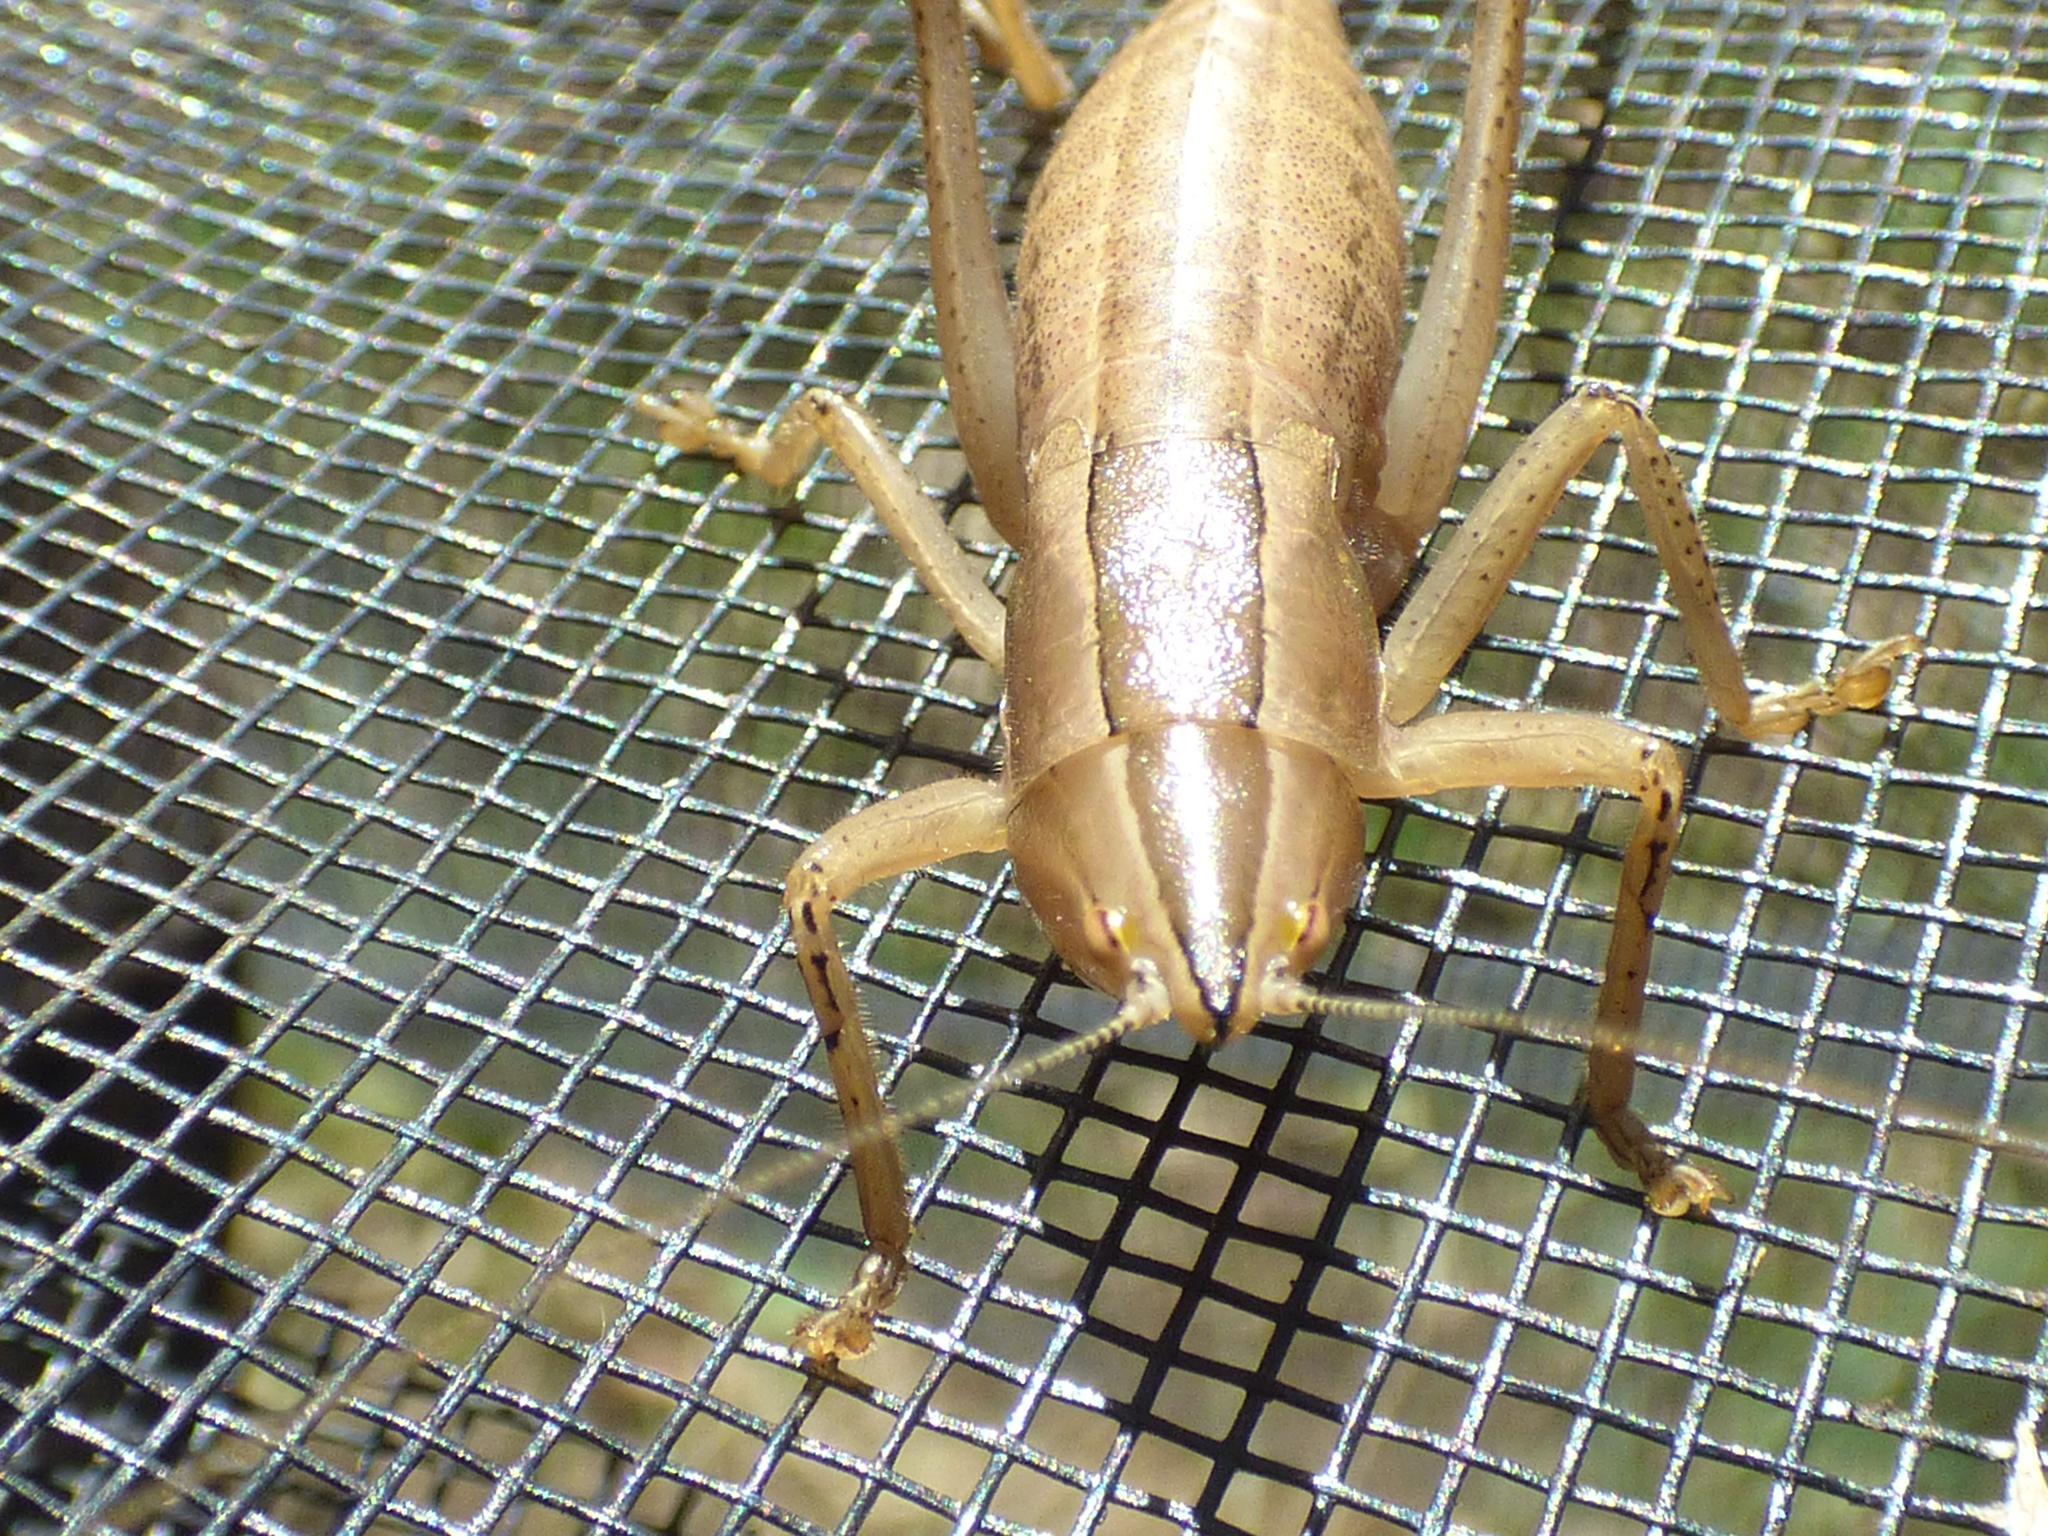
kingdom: Animalia
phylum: Arthropoda
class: Insecta
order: Orthoptera
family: Tettigoniidae
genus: Belocephalus
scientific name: Belocephalus subapterus
